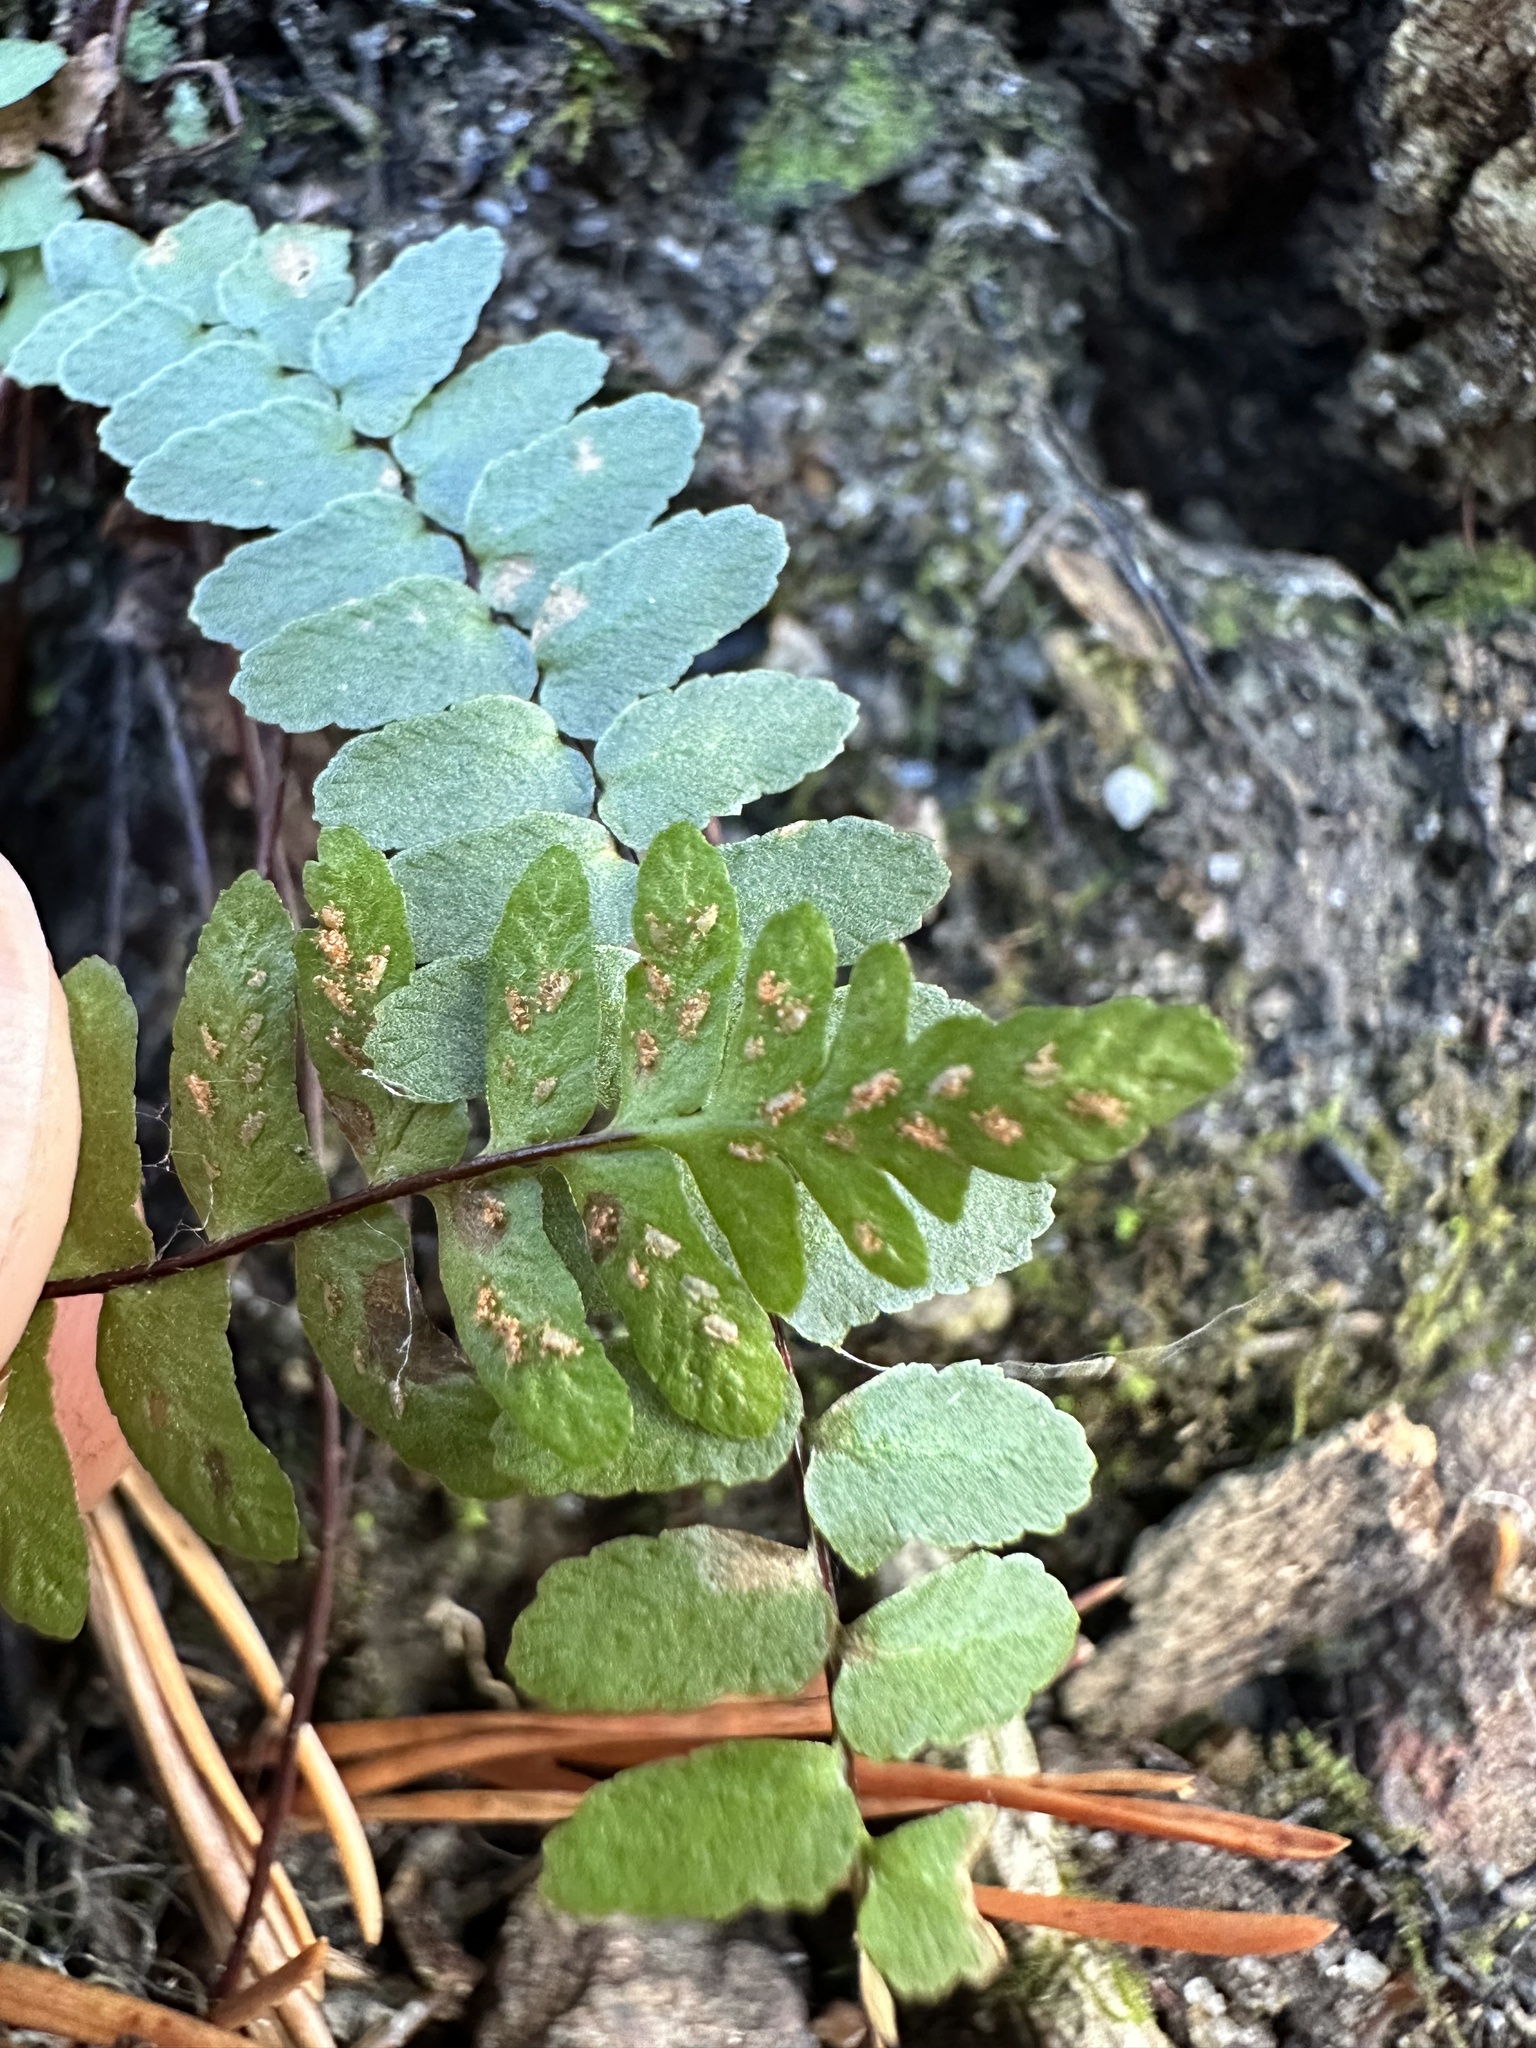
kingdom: Plantae
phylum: Tracheophyta
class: Polypodiopsida
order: Polypodiales
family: Aspleniaceae
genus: Asplenium
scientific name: Asplenium platyneuron
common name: Ebony spleenwort
